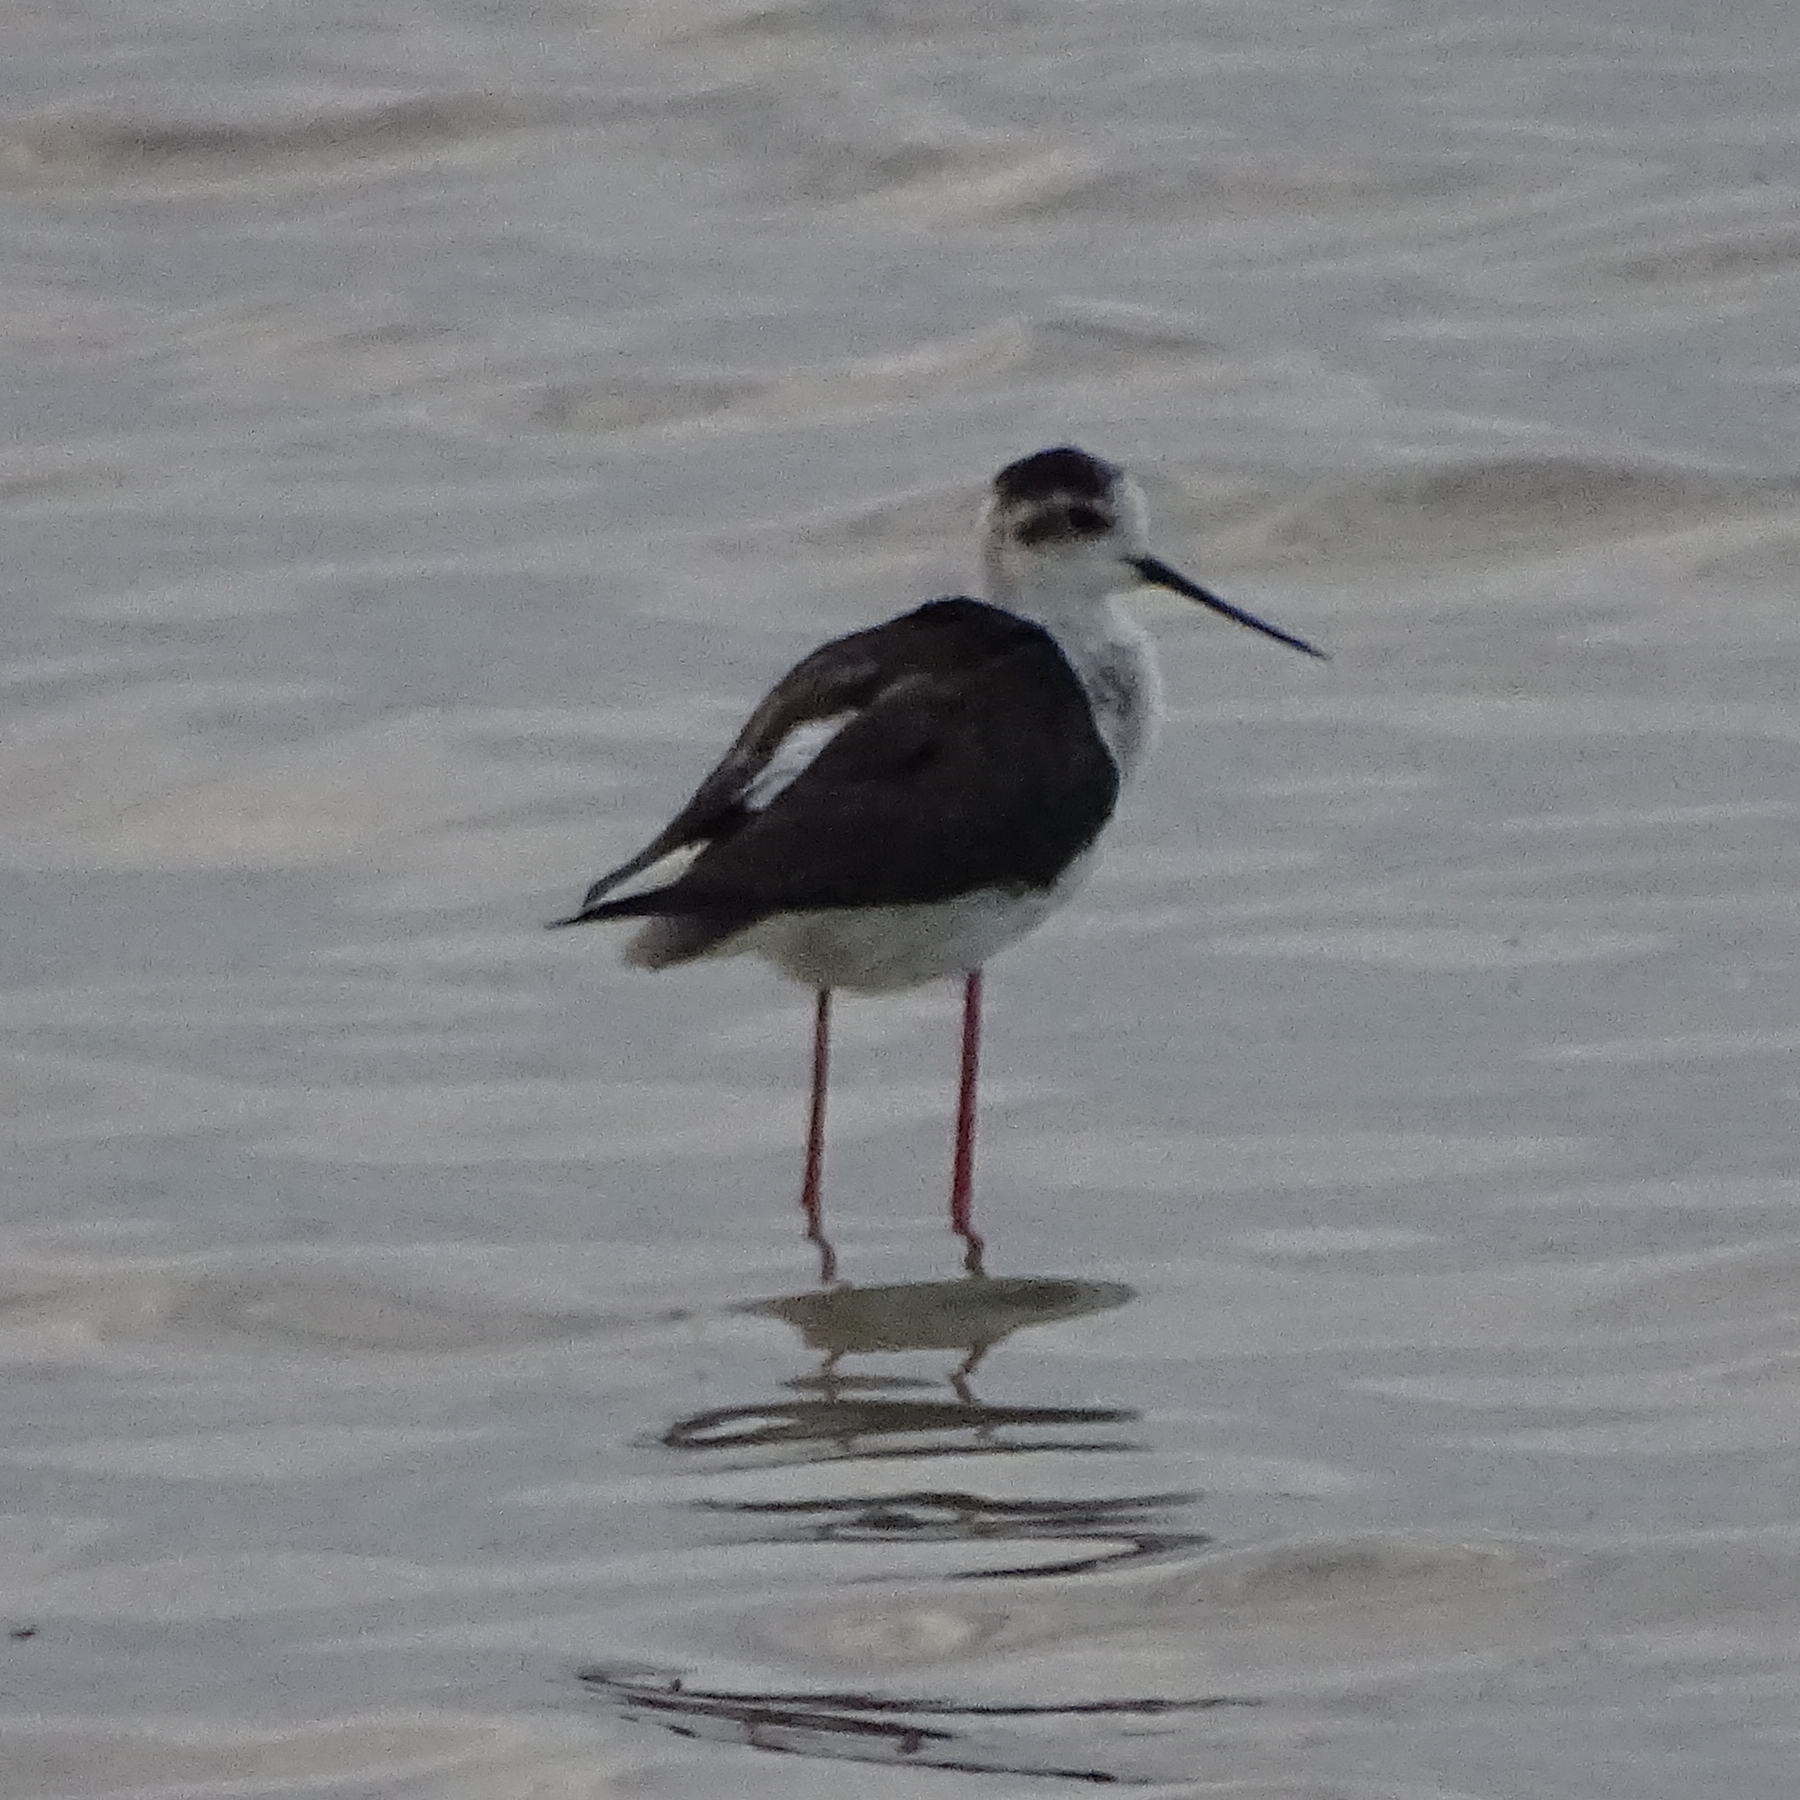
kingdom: Animalia
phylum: Chordata
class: Aves
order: Charadriiformes
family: Recurvirostridae
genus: Himantopus
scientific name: Himantopus himantopus
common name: Black-winged stilt
